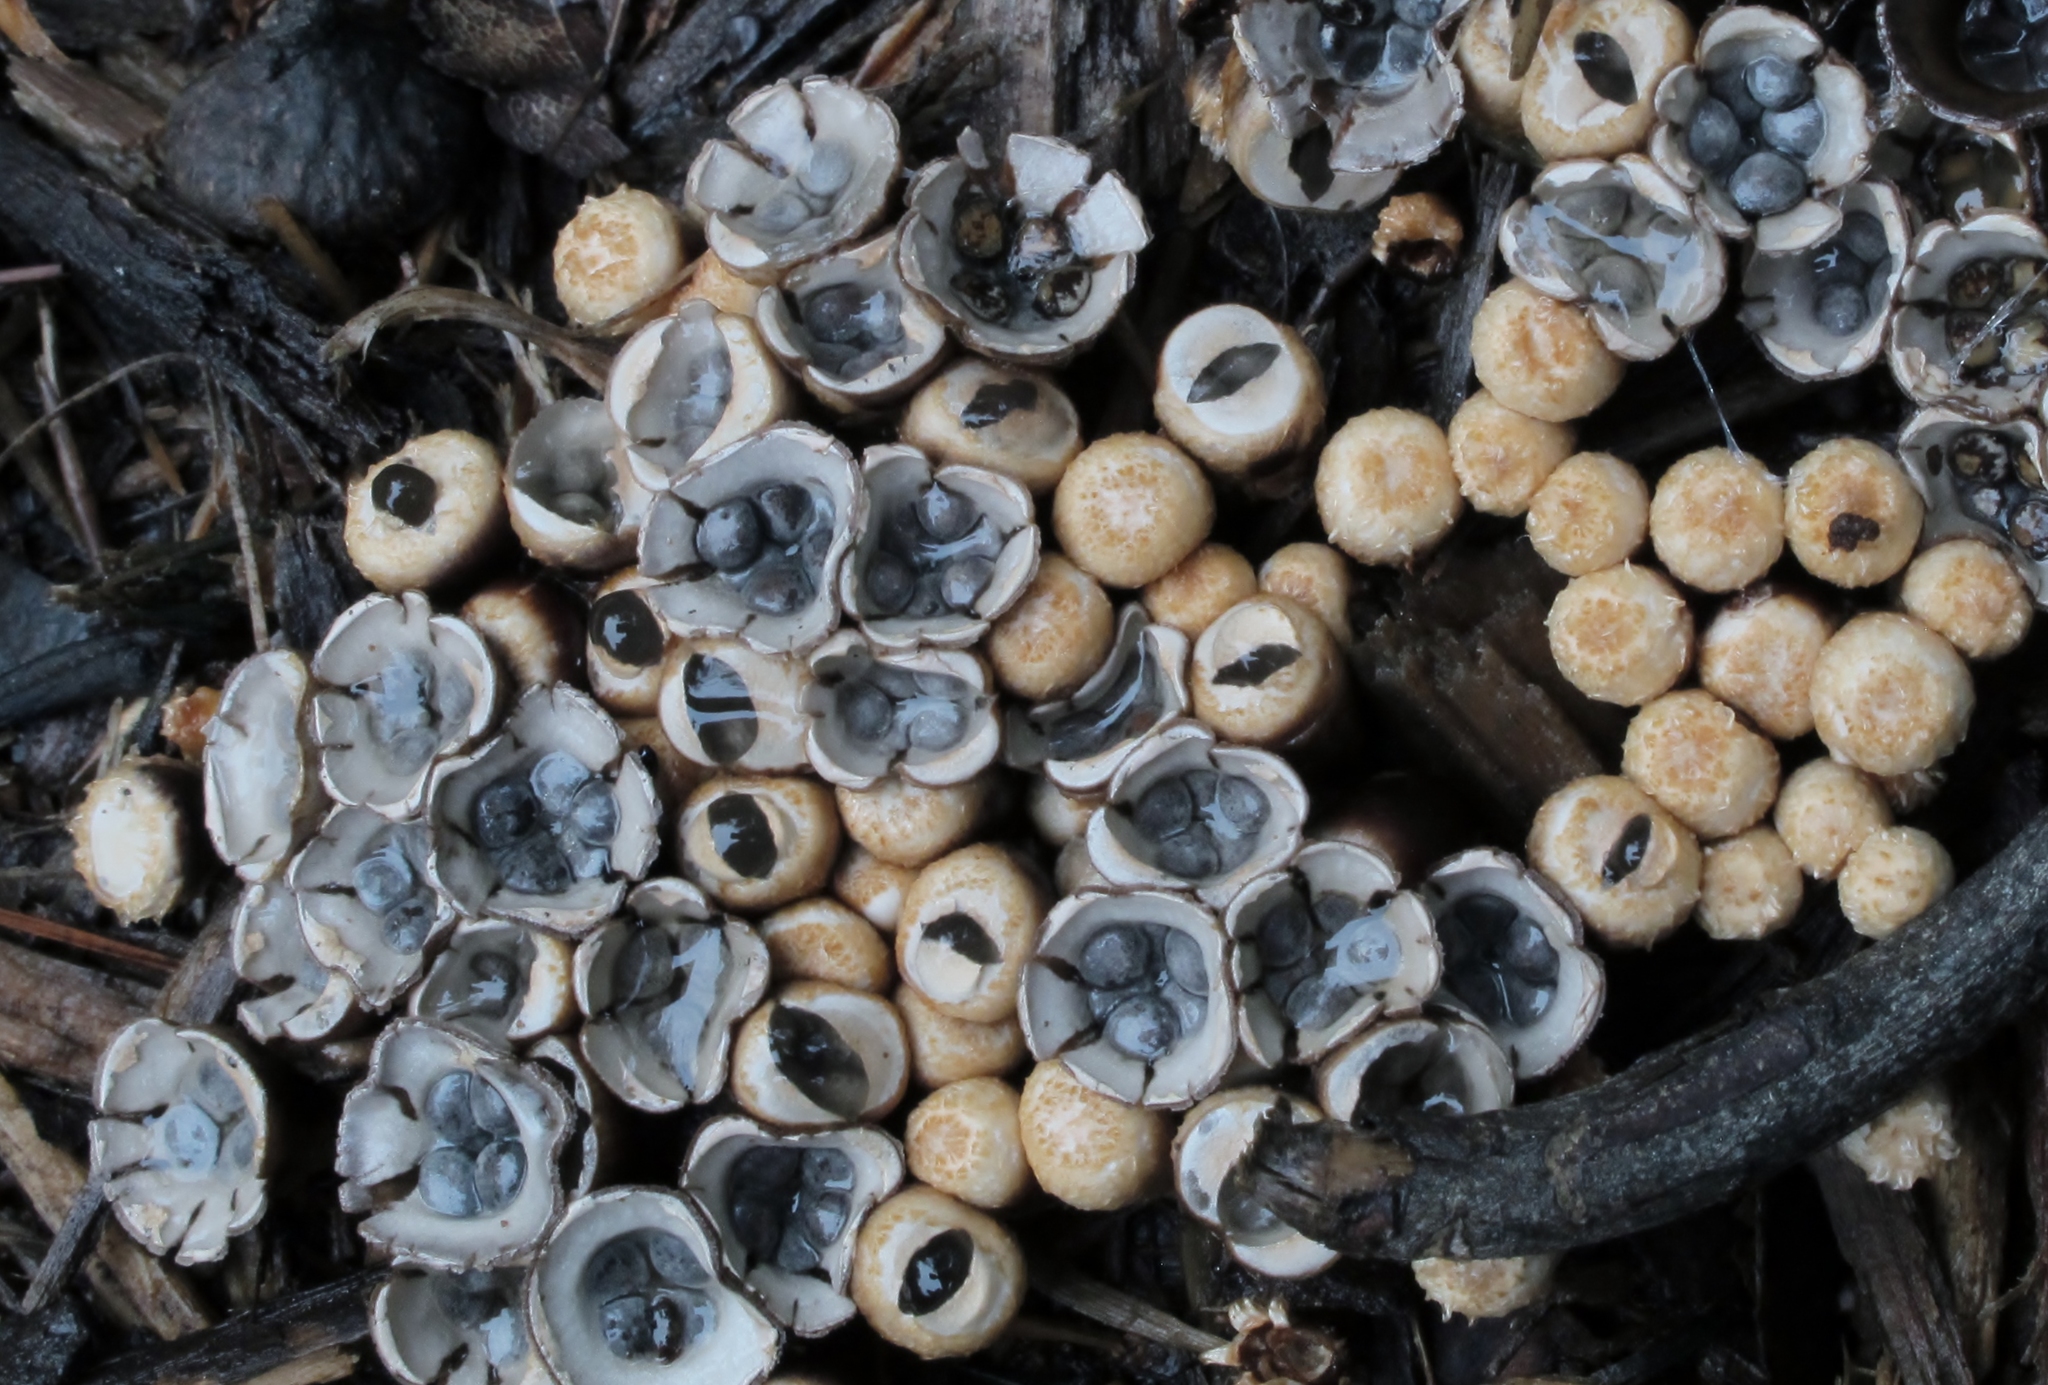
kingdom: Fungi
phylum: Basidiomycota
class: Agaricomycetes
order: Agaricales
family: Agaricaceae
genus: Cyathus
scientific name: Cyathus olla
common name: Field bird's nest
